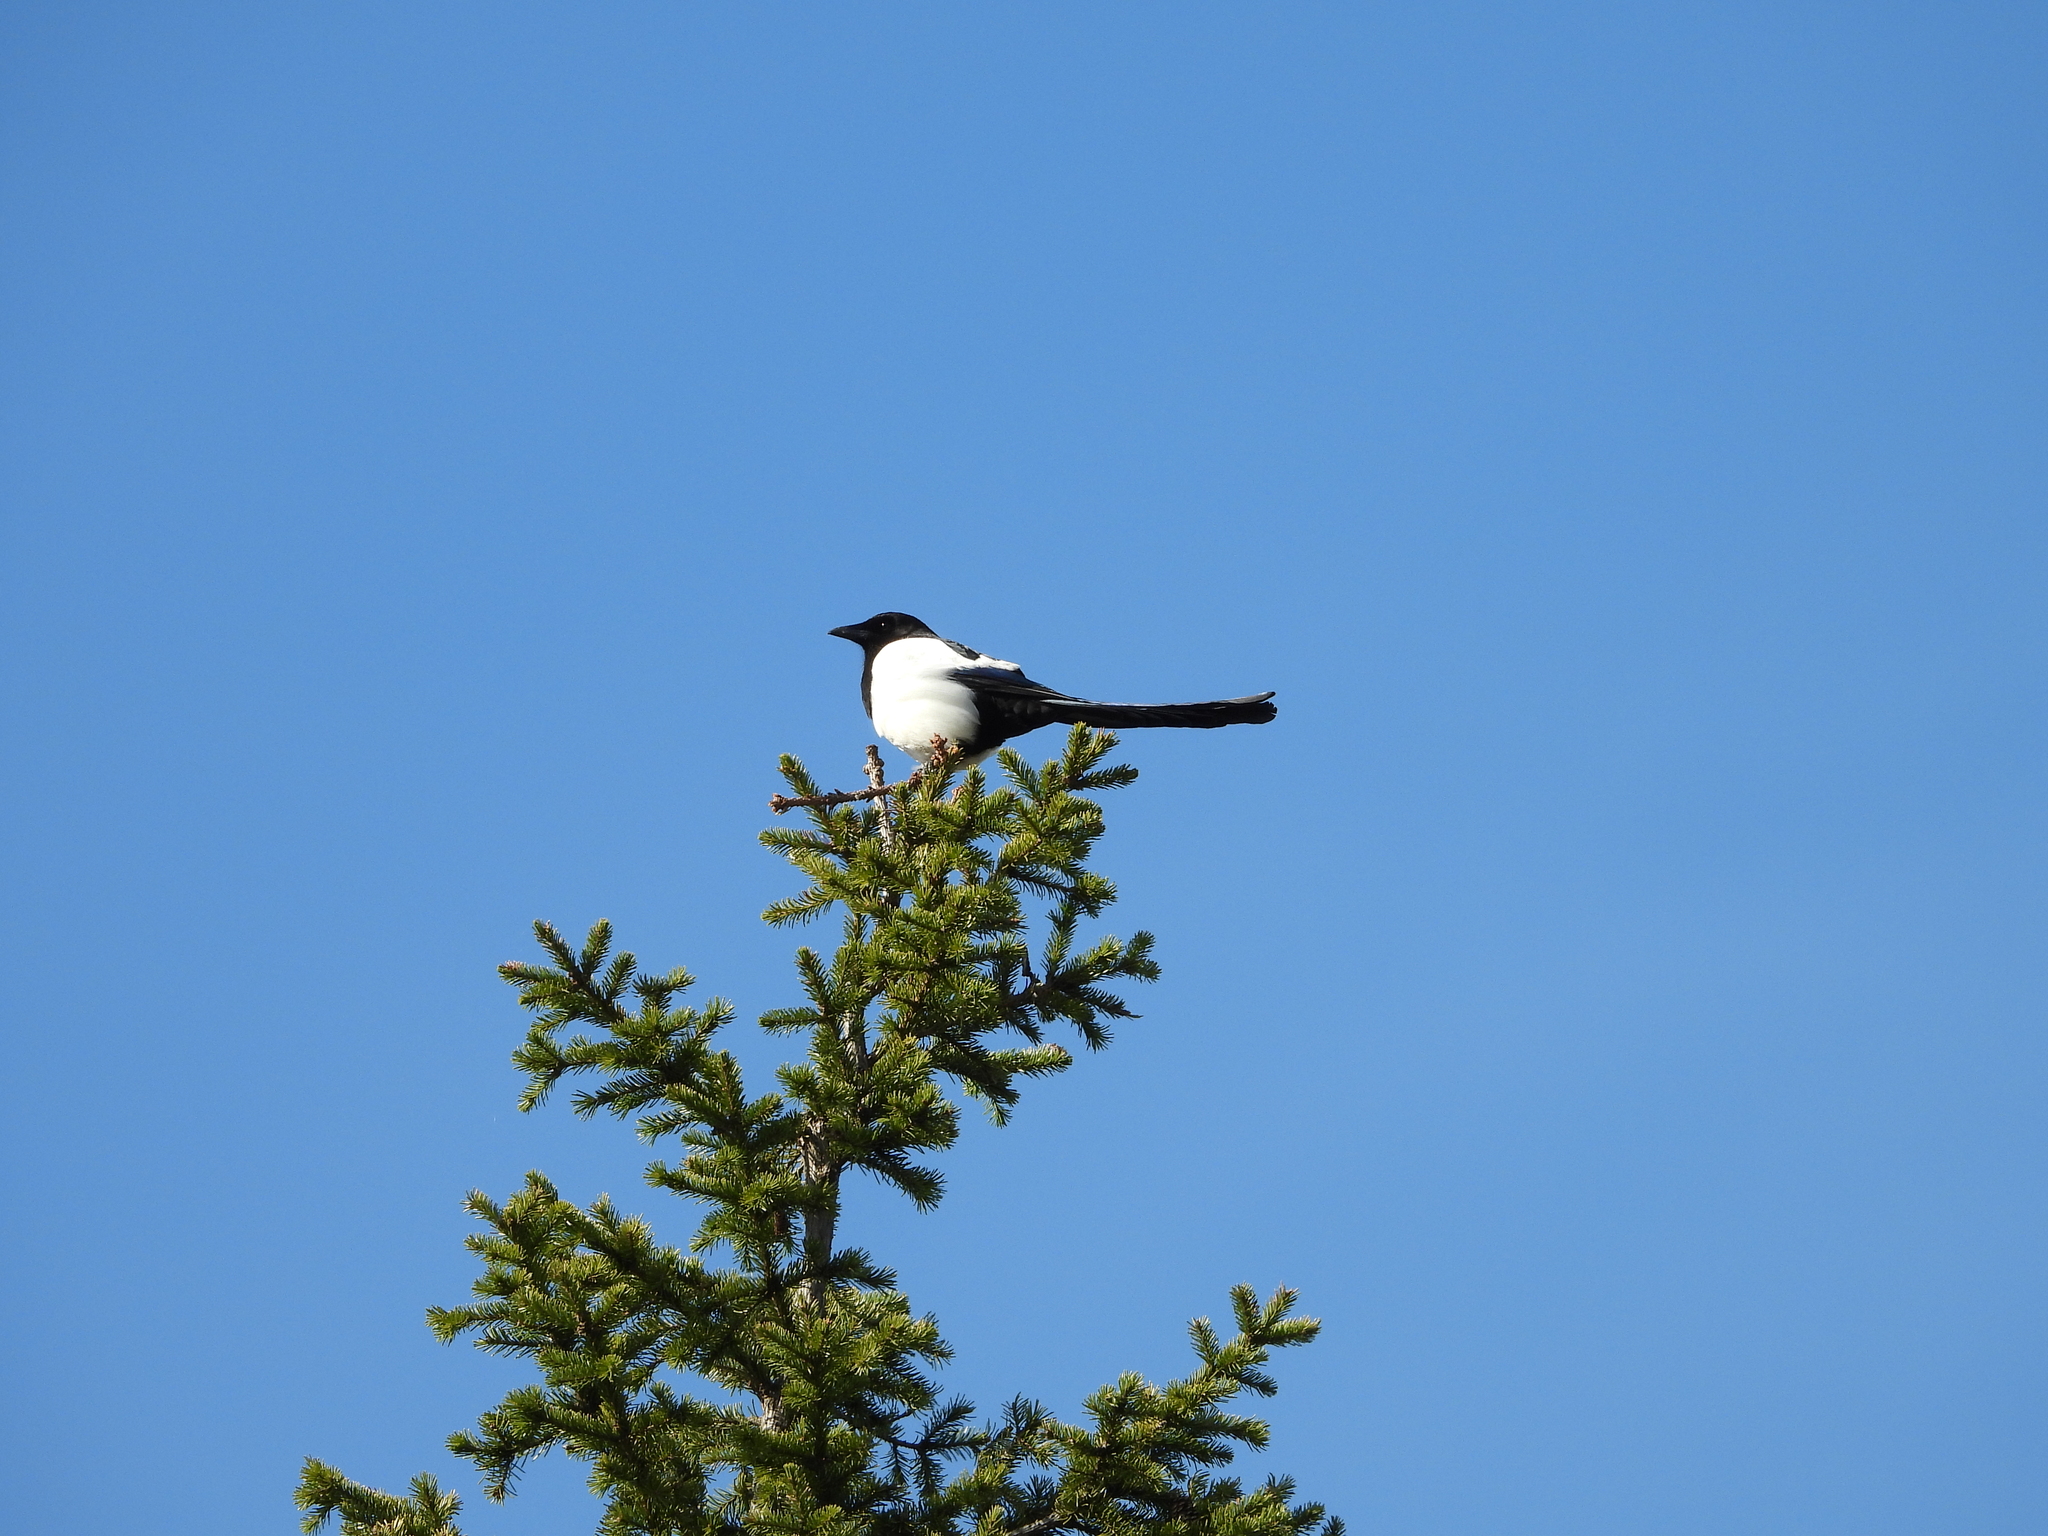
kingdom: Animalia
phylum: Chordata
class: Aves
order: Passeriformes
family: Corvidae
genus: Pica
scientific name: Pica pica
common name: Eurasian magpie
